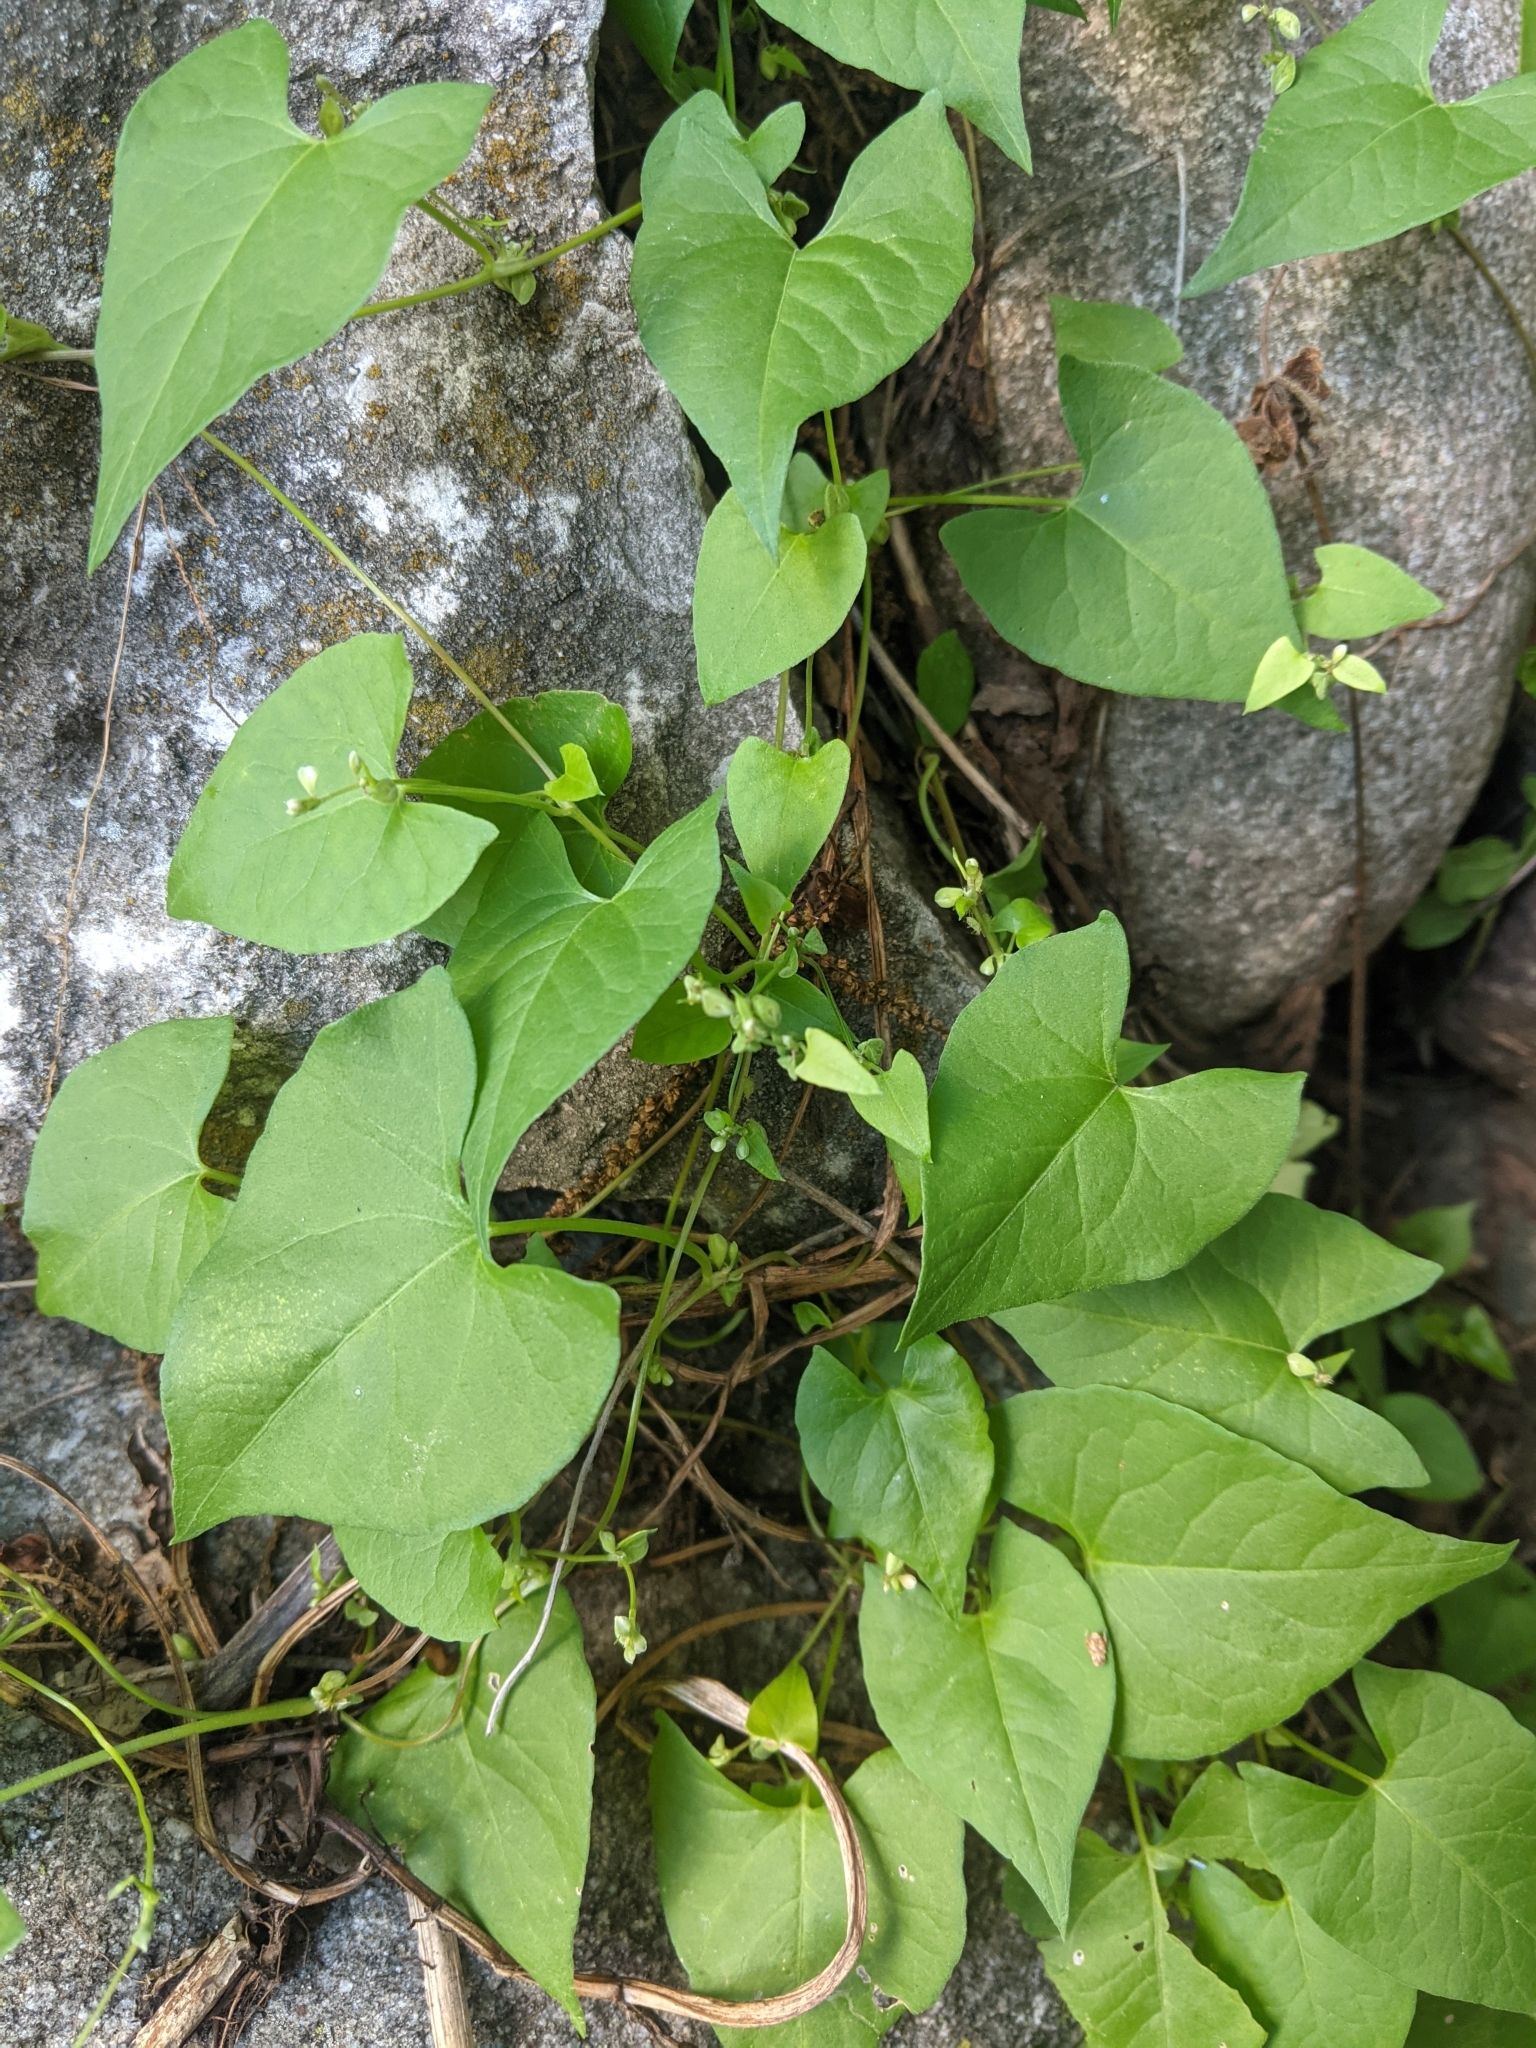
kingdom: Plantae
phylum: Tracheophyta
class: Magnoliopsida
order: Caryophyllales
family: Polygonaceae
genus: Fallopia
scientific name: Fallopia convolvulus
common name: Black bindweed
